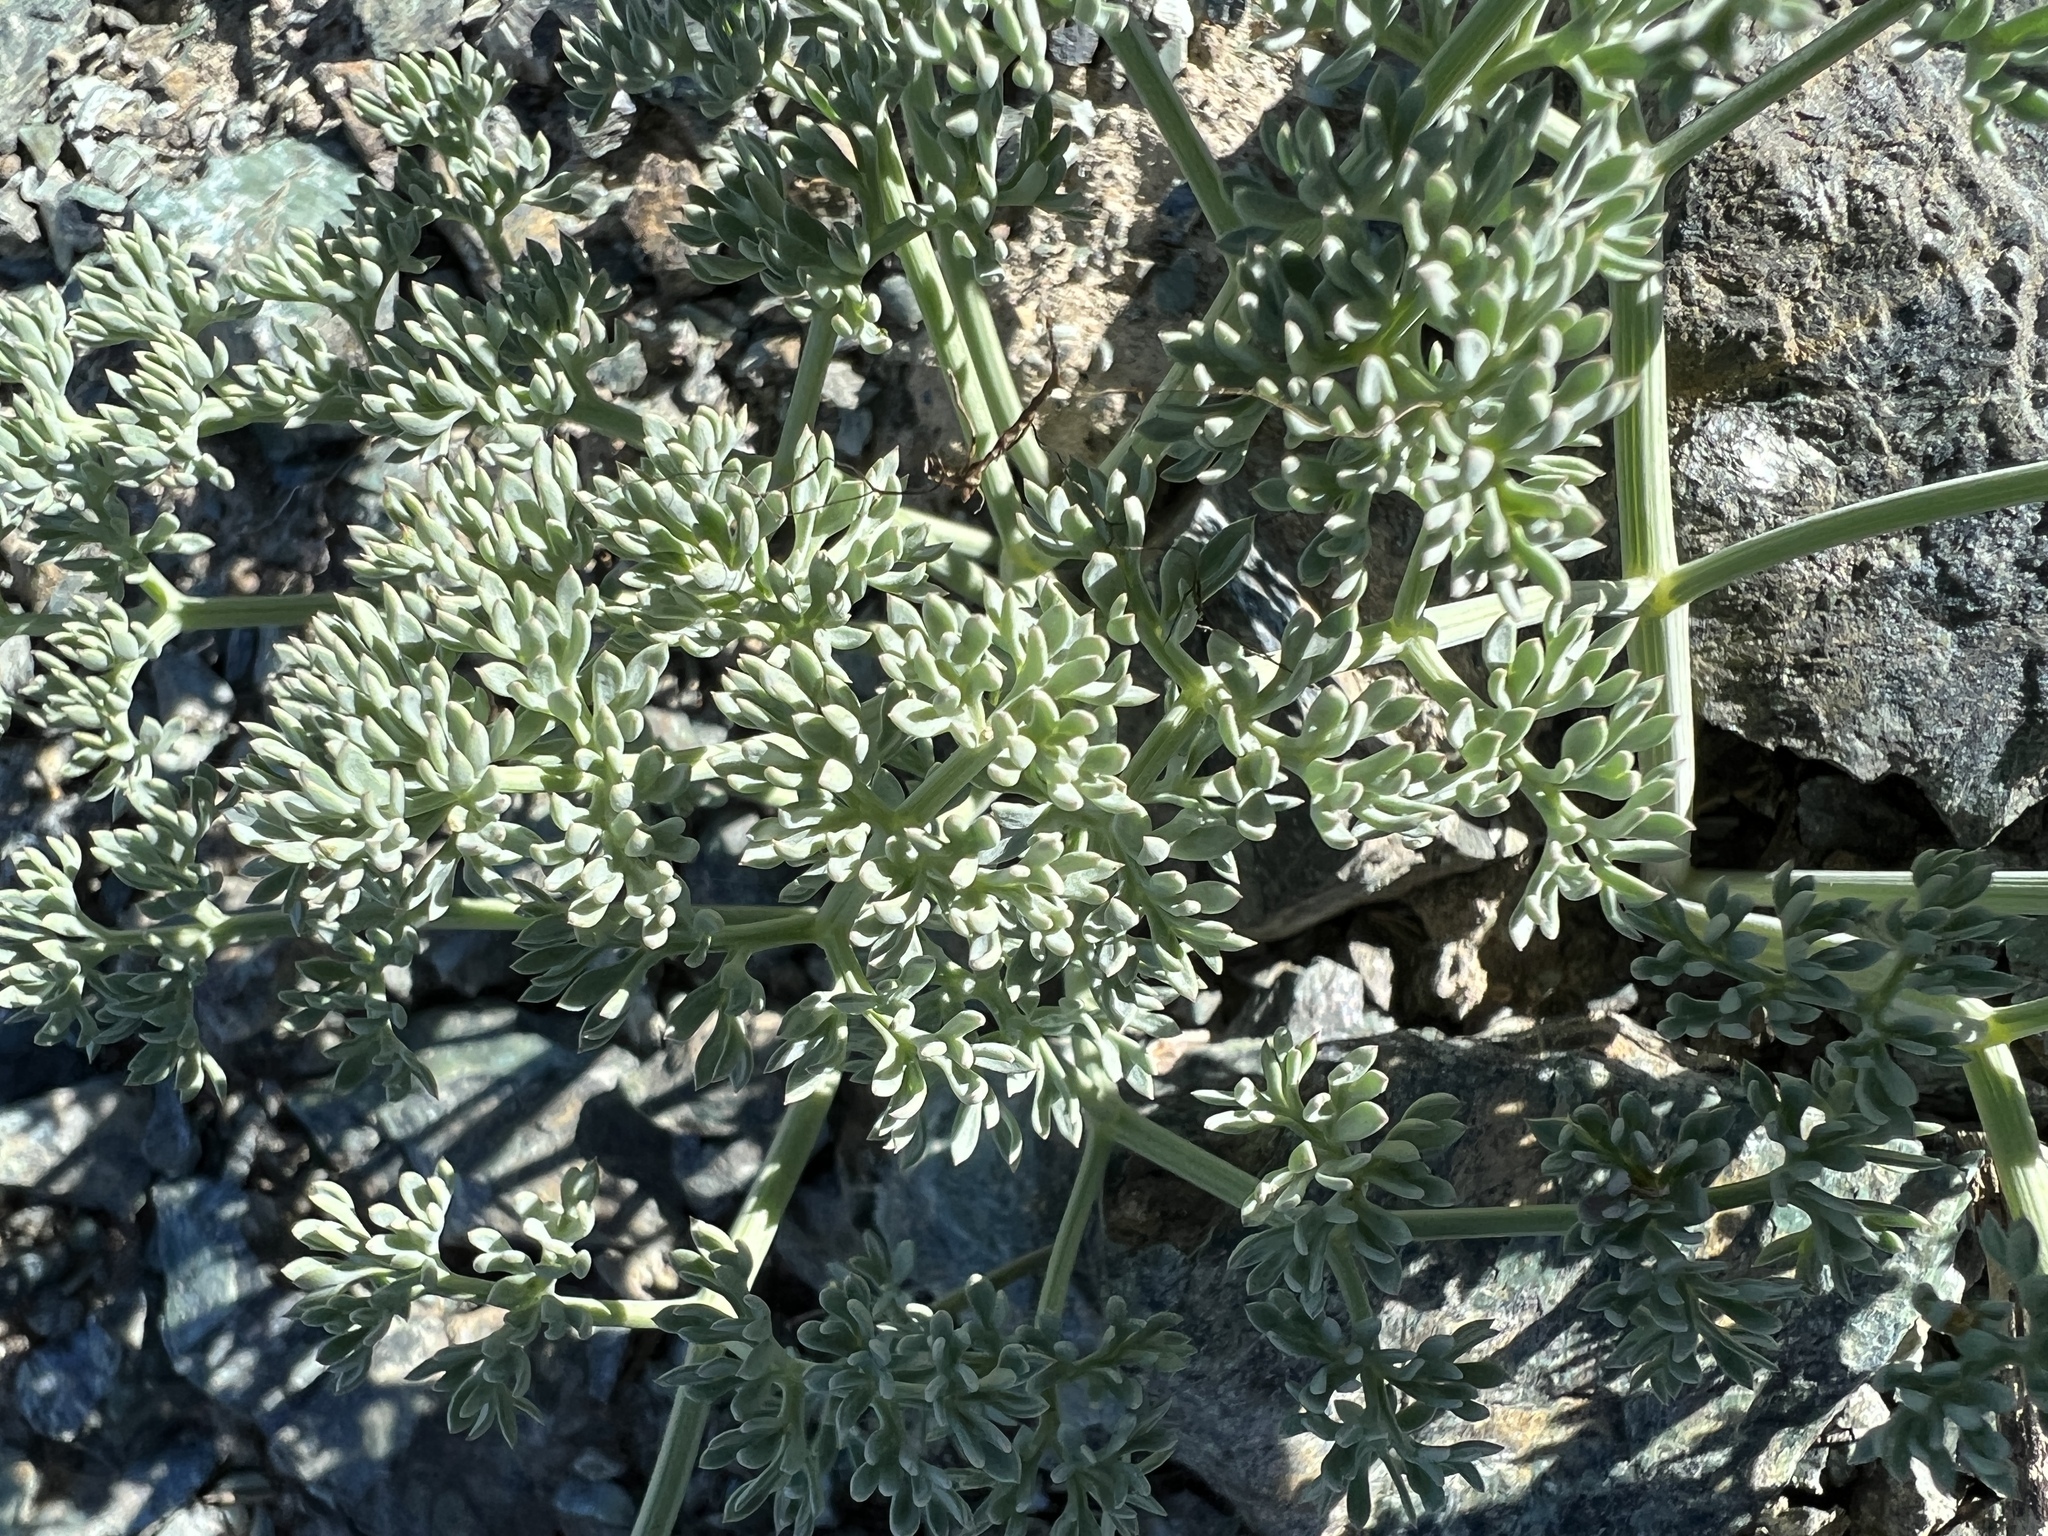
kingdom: Plantae
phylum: Tracheophyta
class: Magnoliopsida
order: Apiales
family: Apiaceae
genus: Lomatium
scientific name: Lomatium cuspidatum
